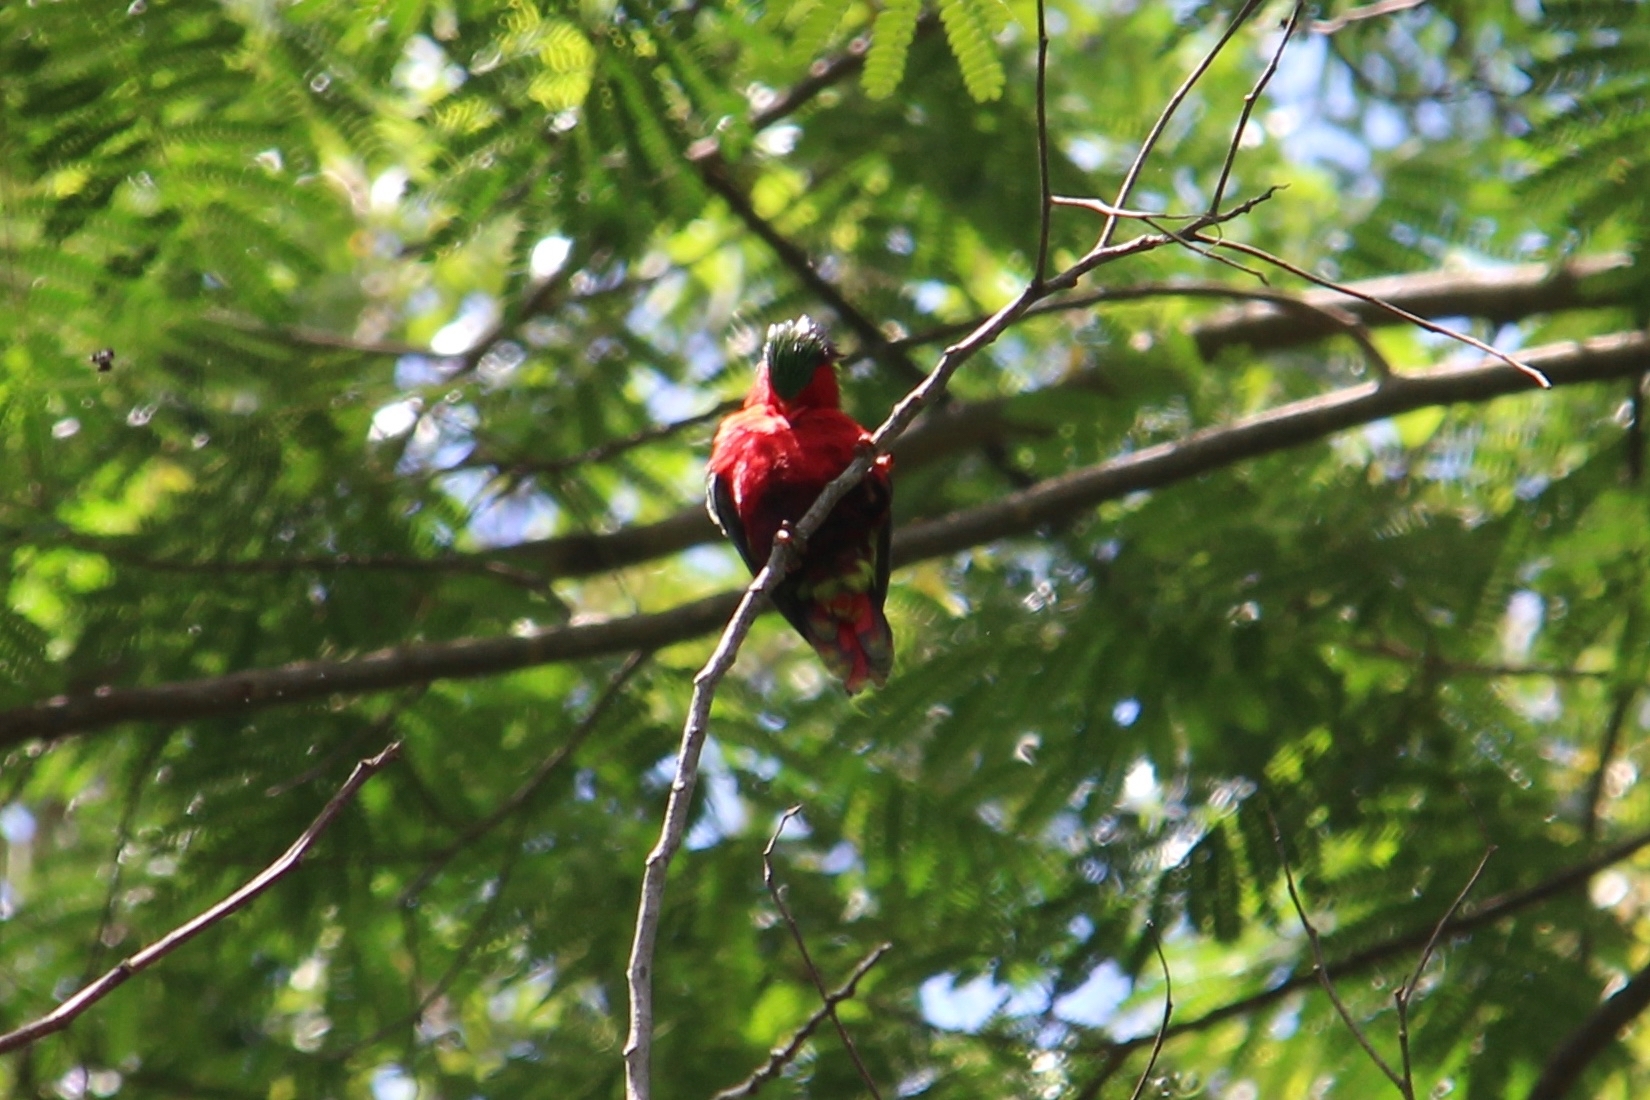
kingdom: Animalia
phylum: Chordata
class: Aves
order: Psittaciformes
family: Psittacidae
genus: Vini
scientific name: Vini kuhlii
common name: Kuhl's lorikeet
